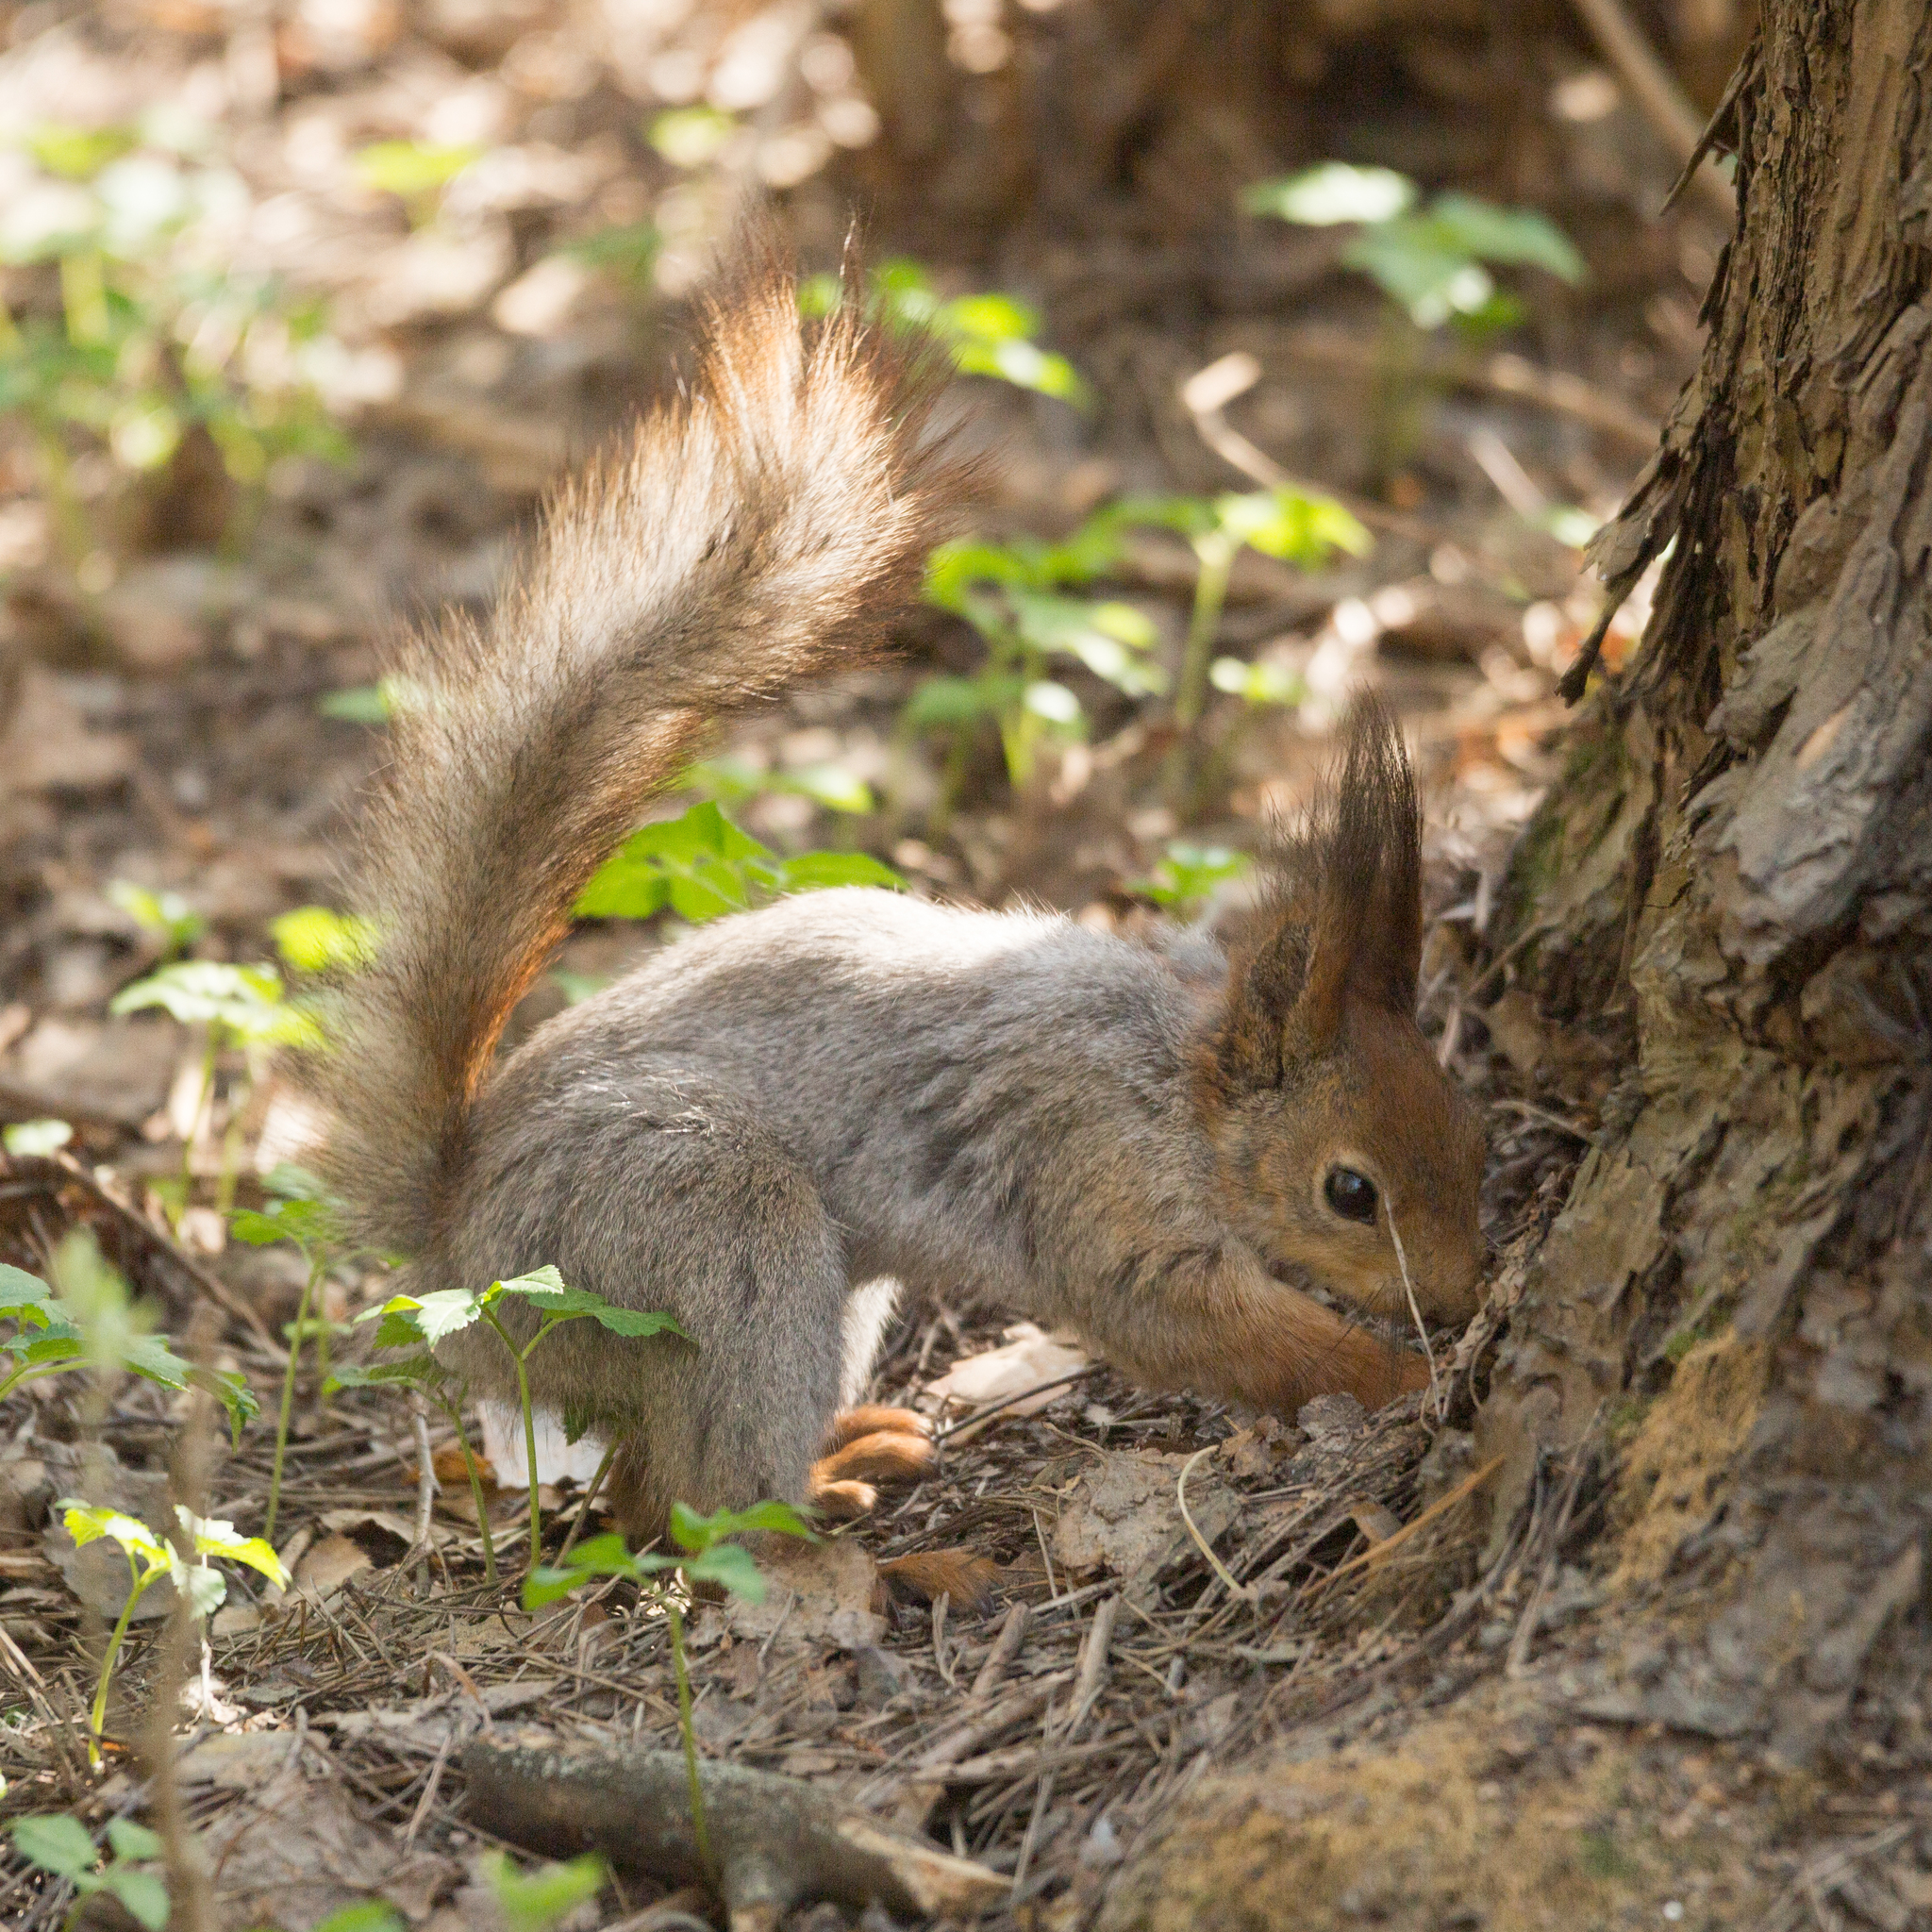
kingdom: Animalia
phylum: Chordata
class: Mammalia
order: Rodentia
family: Sciuridae
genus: Sciurus
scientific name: Sciurus vulgaris
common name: Eurasian red squirrel
